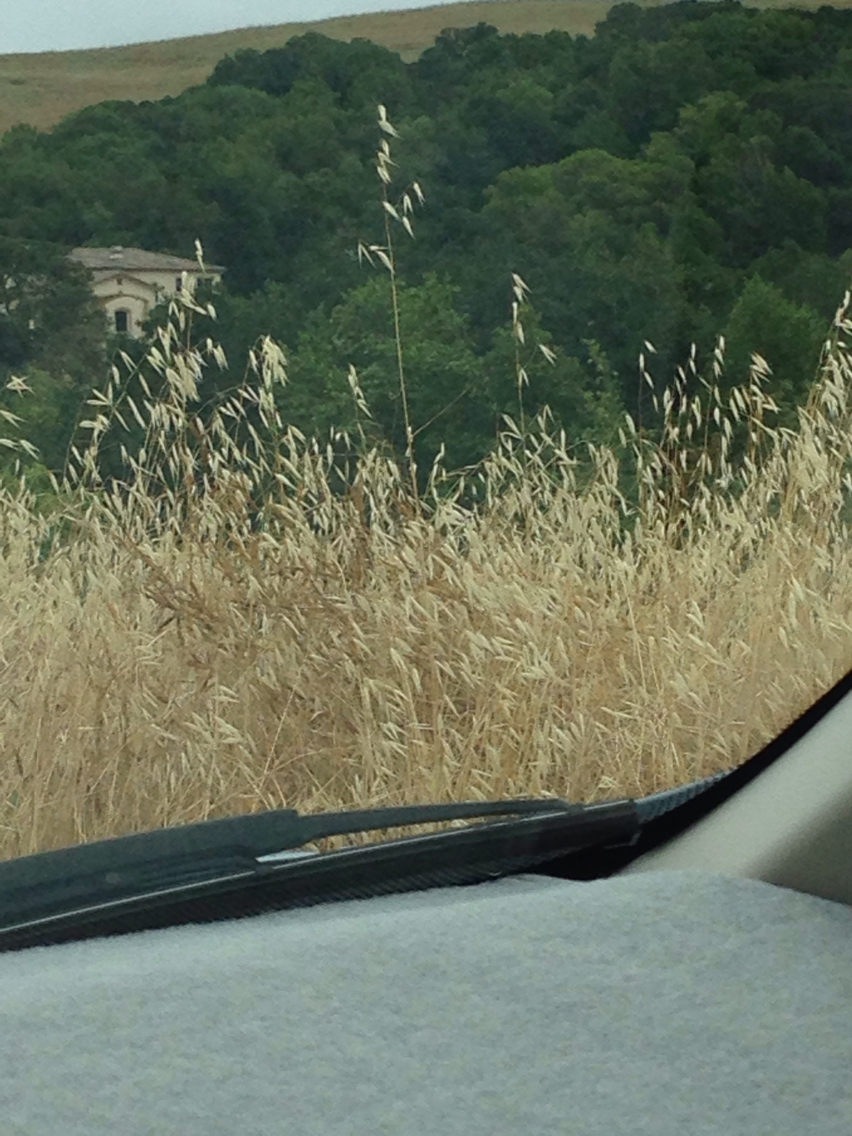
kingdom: Plantae
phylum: Tracheophyta
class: Liliopsida
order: Poales
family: Poaceae
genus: Avena
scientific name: Avena fatua
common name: Wild oat
